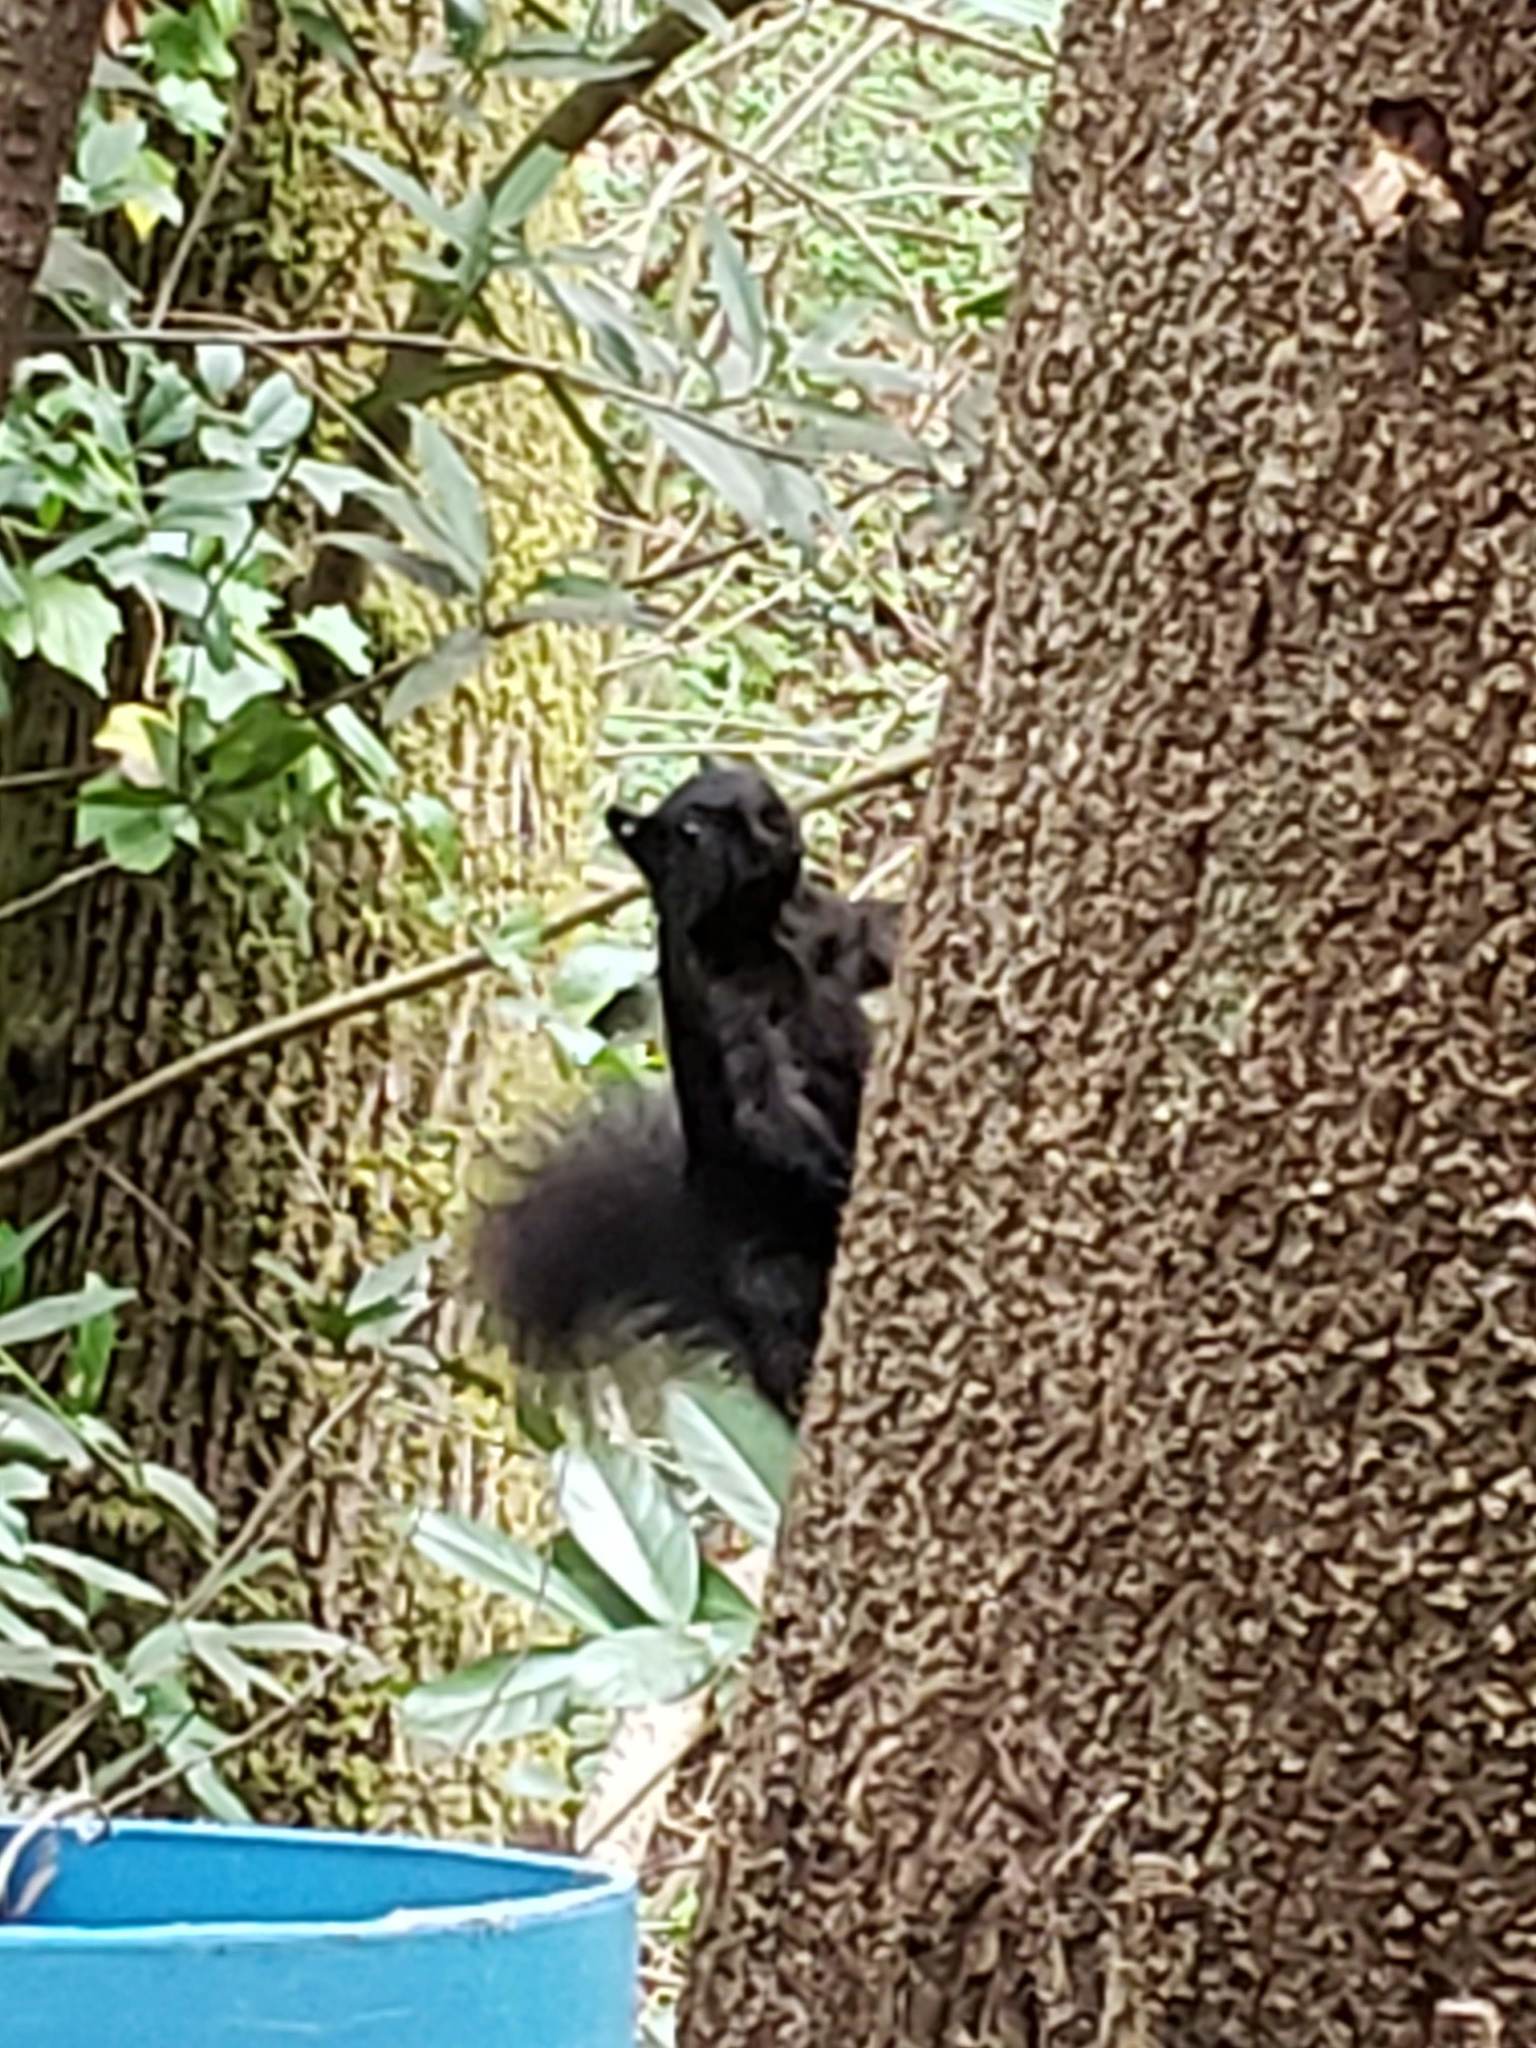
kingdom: Animalia
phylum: Chordata
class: Mammalia
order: Rodentia
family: Sciuridae
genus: Sciurus
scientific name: Sciurus carolinensis
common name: Eastern gray squirrel
